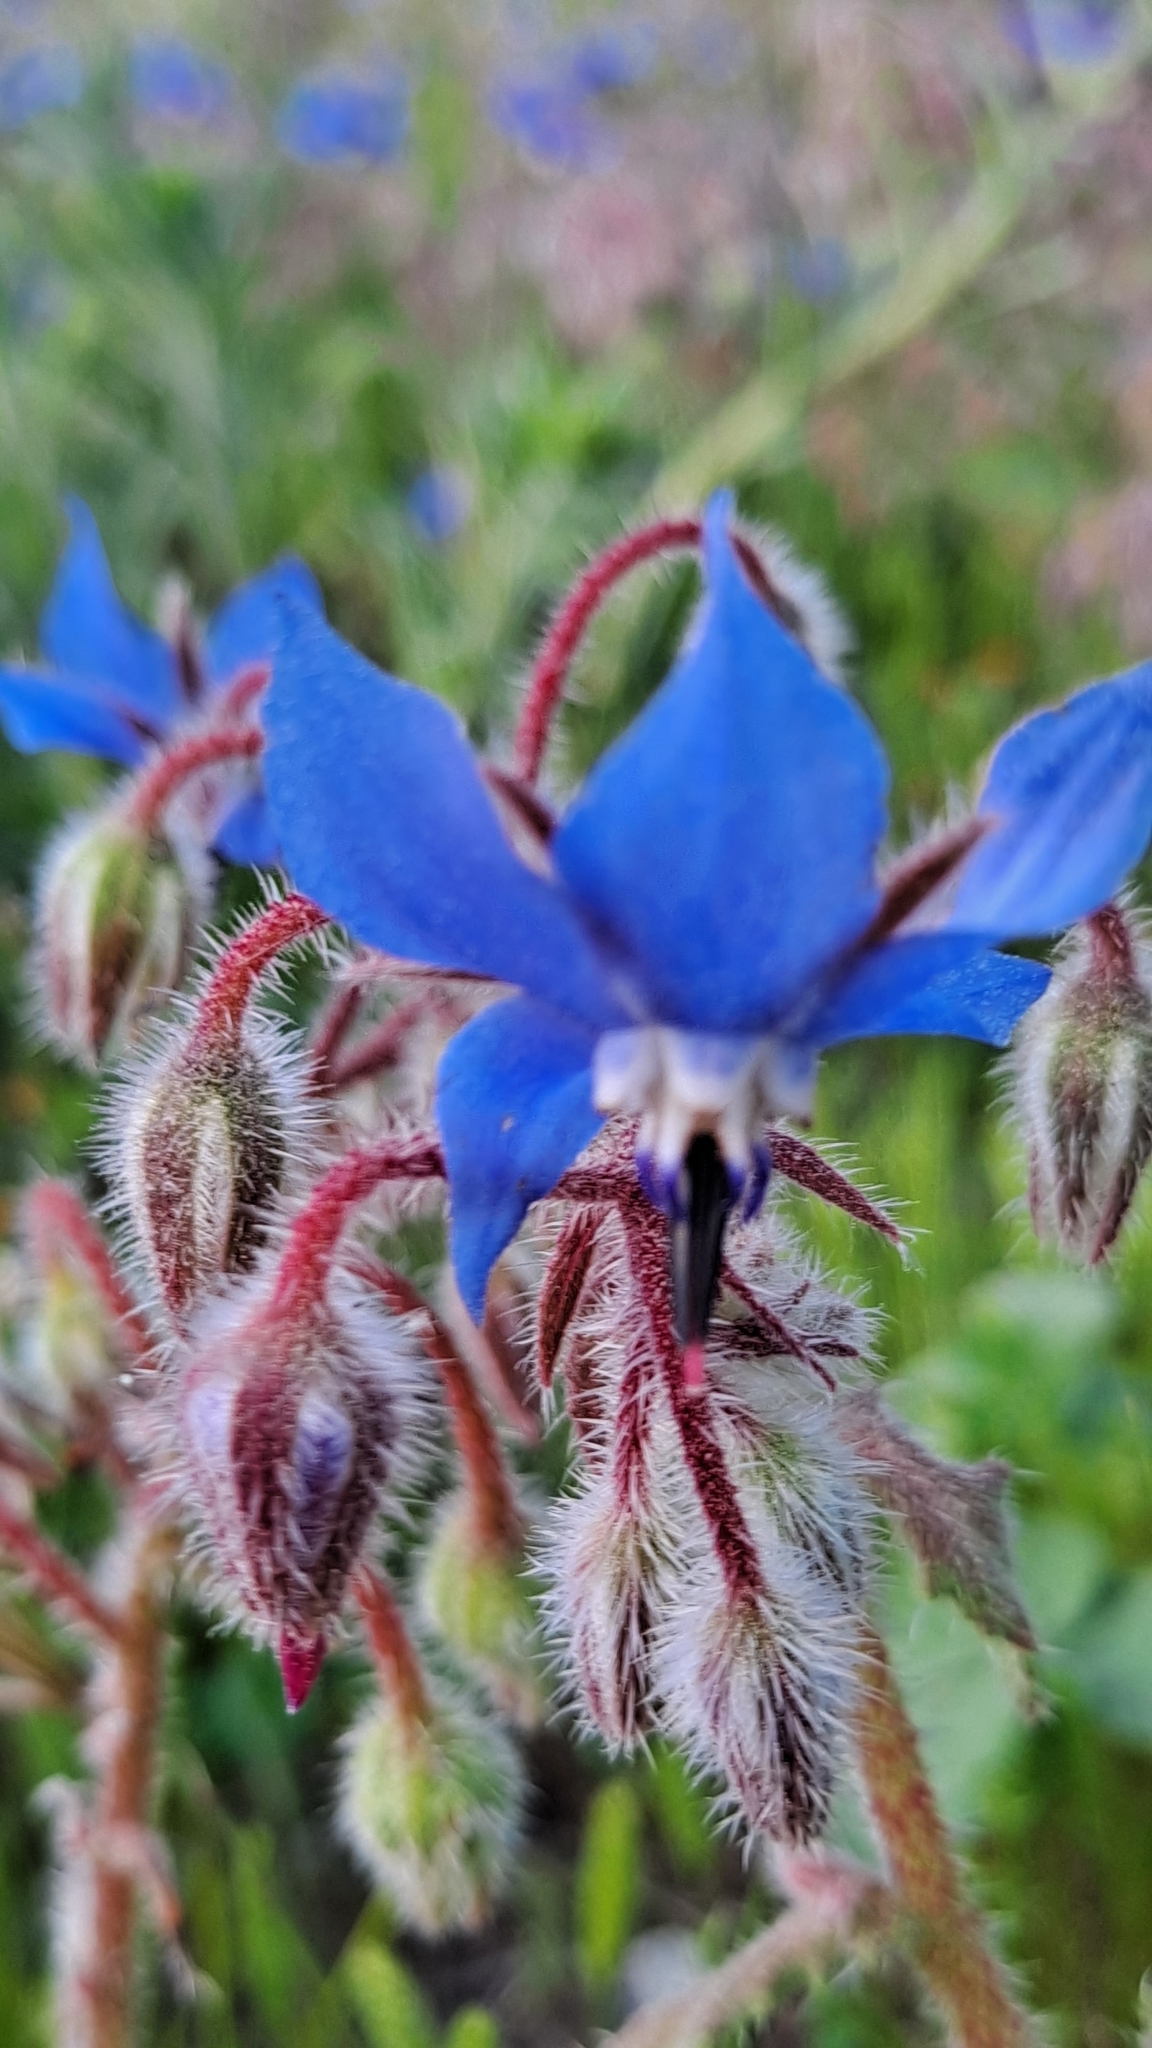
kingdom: Plantae
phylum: Tracheophyta
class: Magnoliopsida
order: Boraginales
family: Boraginaceae
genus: Borago
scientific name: Borago officinalis
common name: Borage
